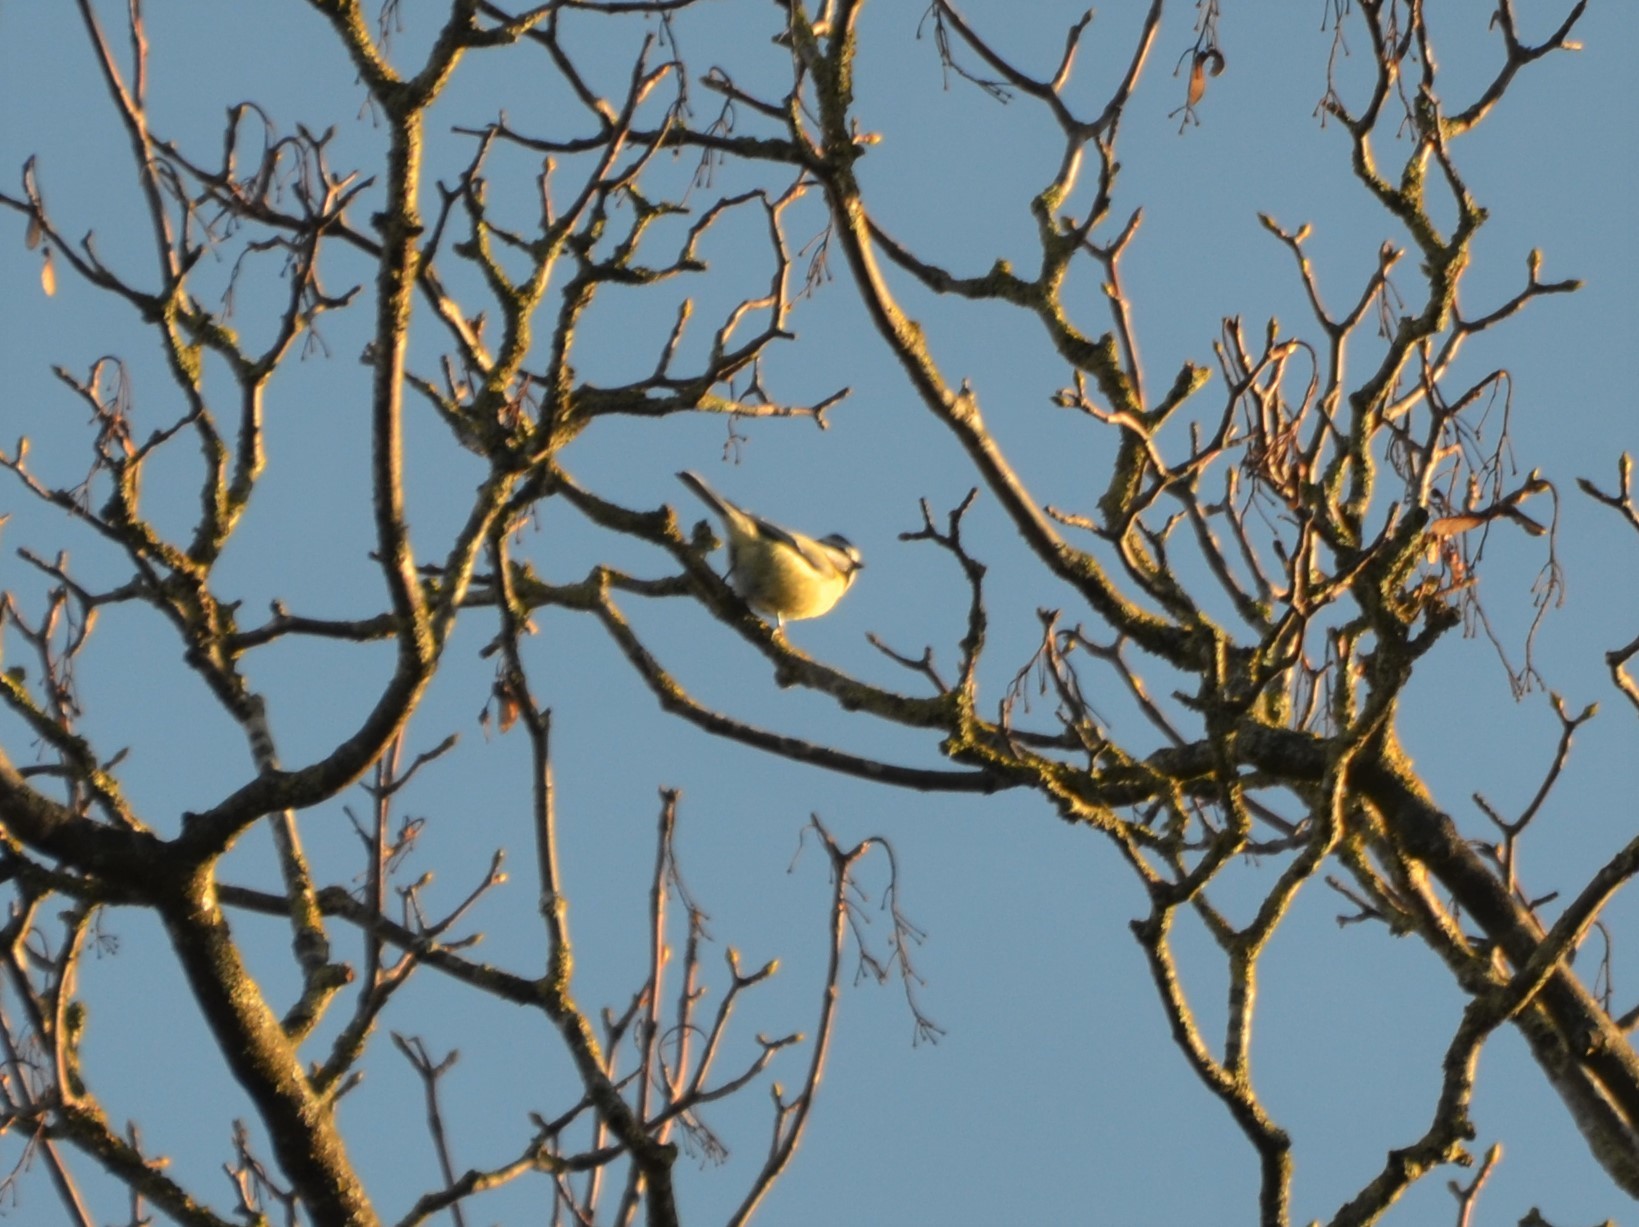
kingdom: Animalia
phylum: Chordata
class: Aves
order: Passeriformes
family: Paridae
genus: Cyanistes
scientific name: Cyanistes caeruleus
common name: Eurasian blue tit
